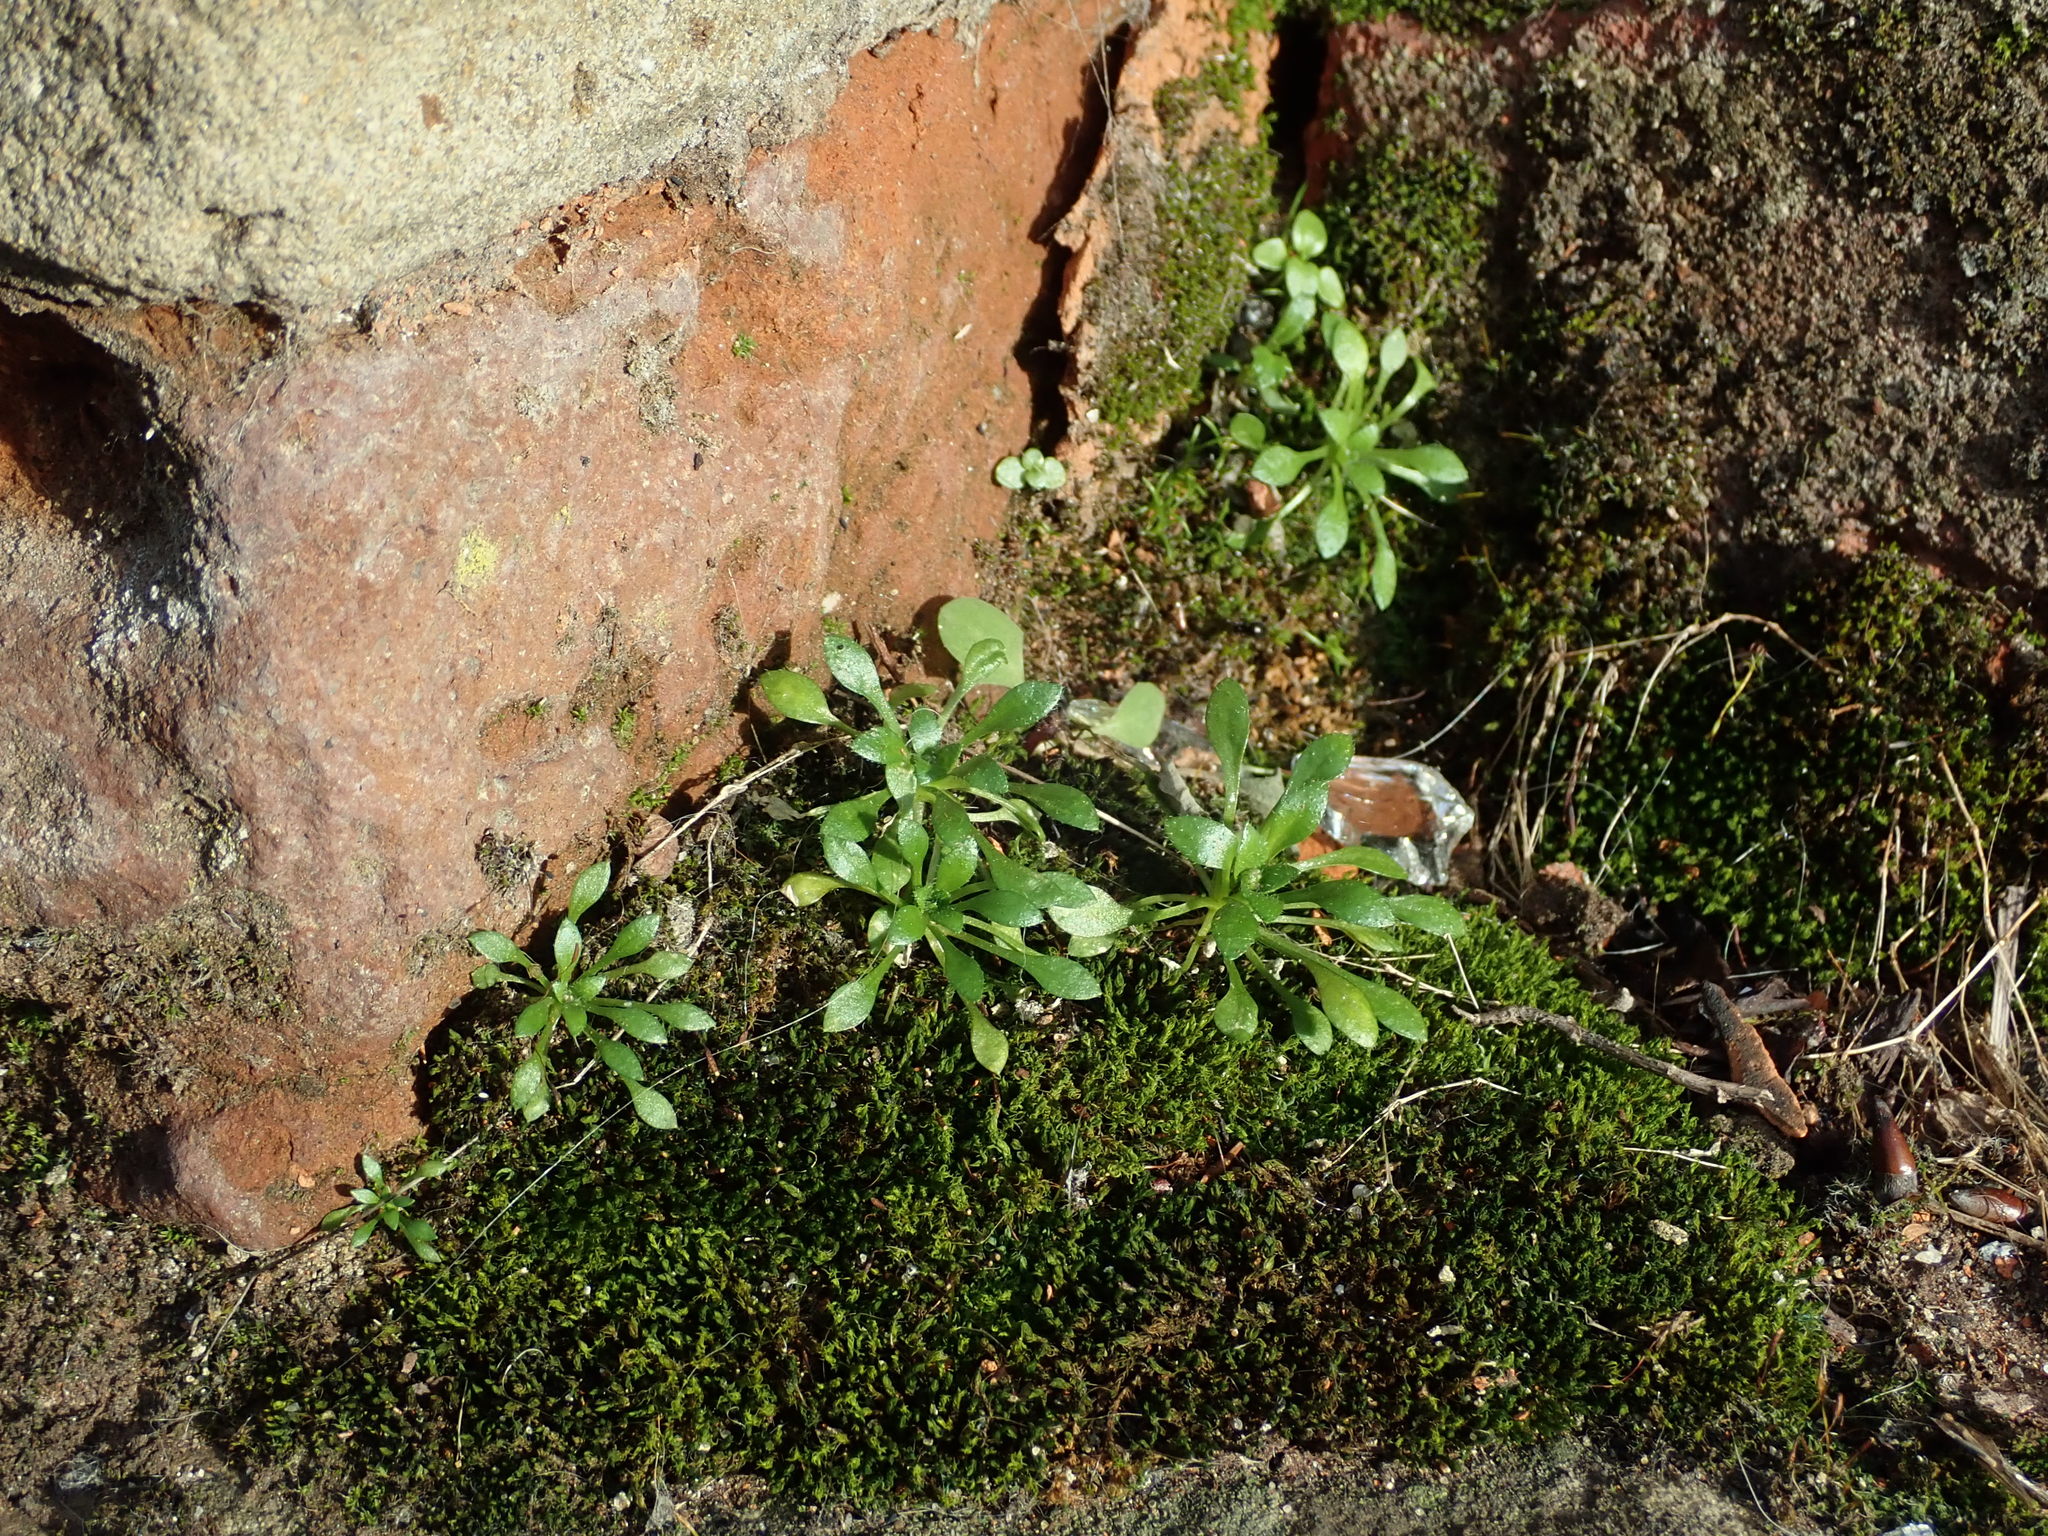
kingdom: Plantae
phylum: Tracheophyta
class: Magnoliopsida
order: Brassicales
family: Brassicaceae
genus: Draba
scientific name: Draba verna
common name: Spring draba
